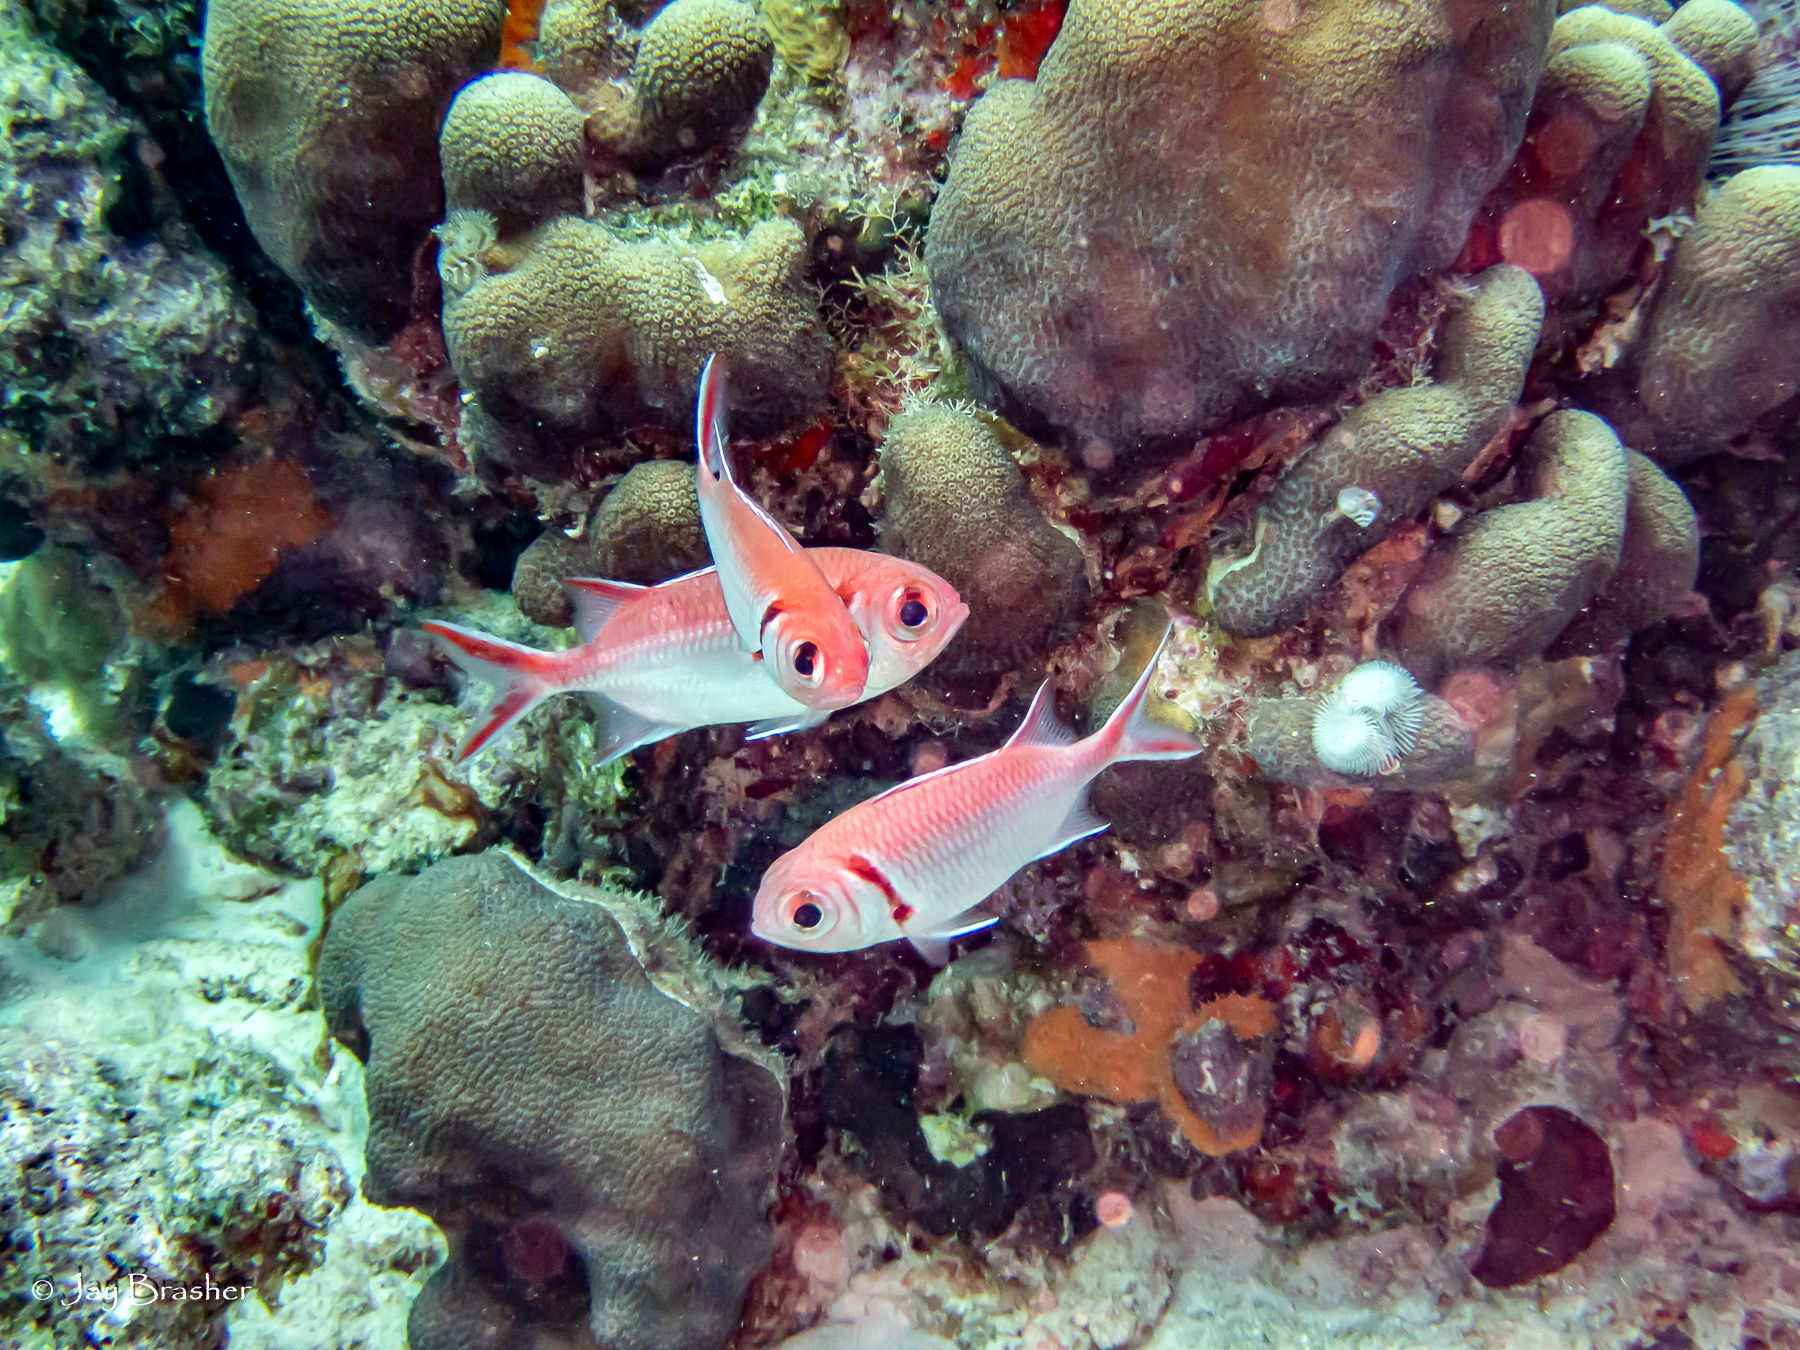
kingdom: Animalia
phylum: Chordata
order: Beryciformes
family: Holocentridae
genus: Myripristis
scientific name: Myripristis jacobus
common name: Blackbar soldierfish
